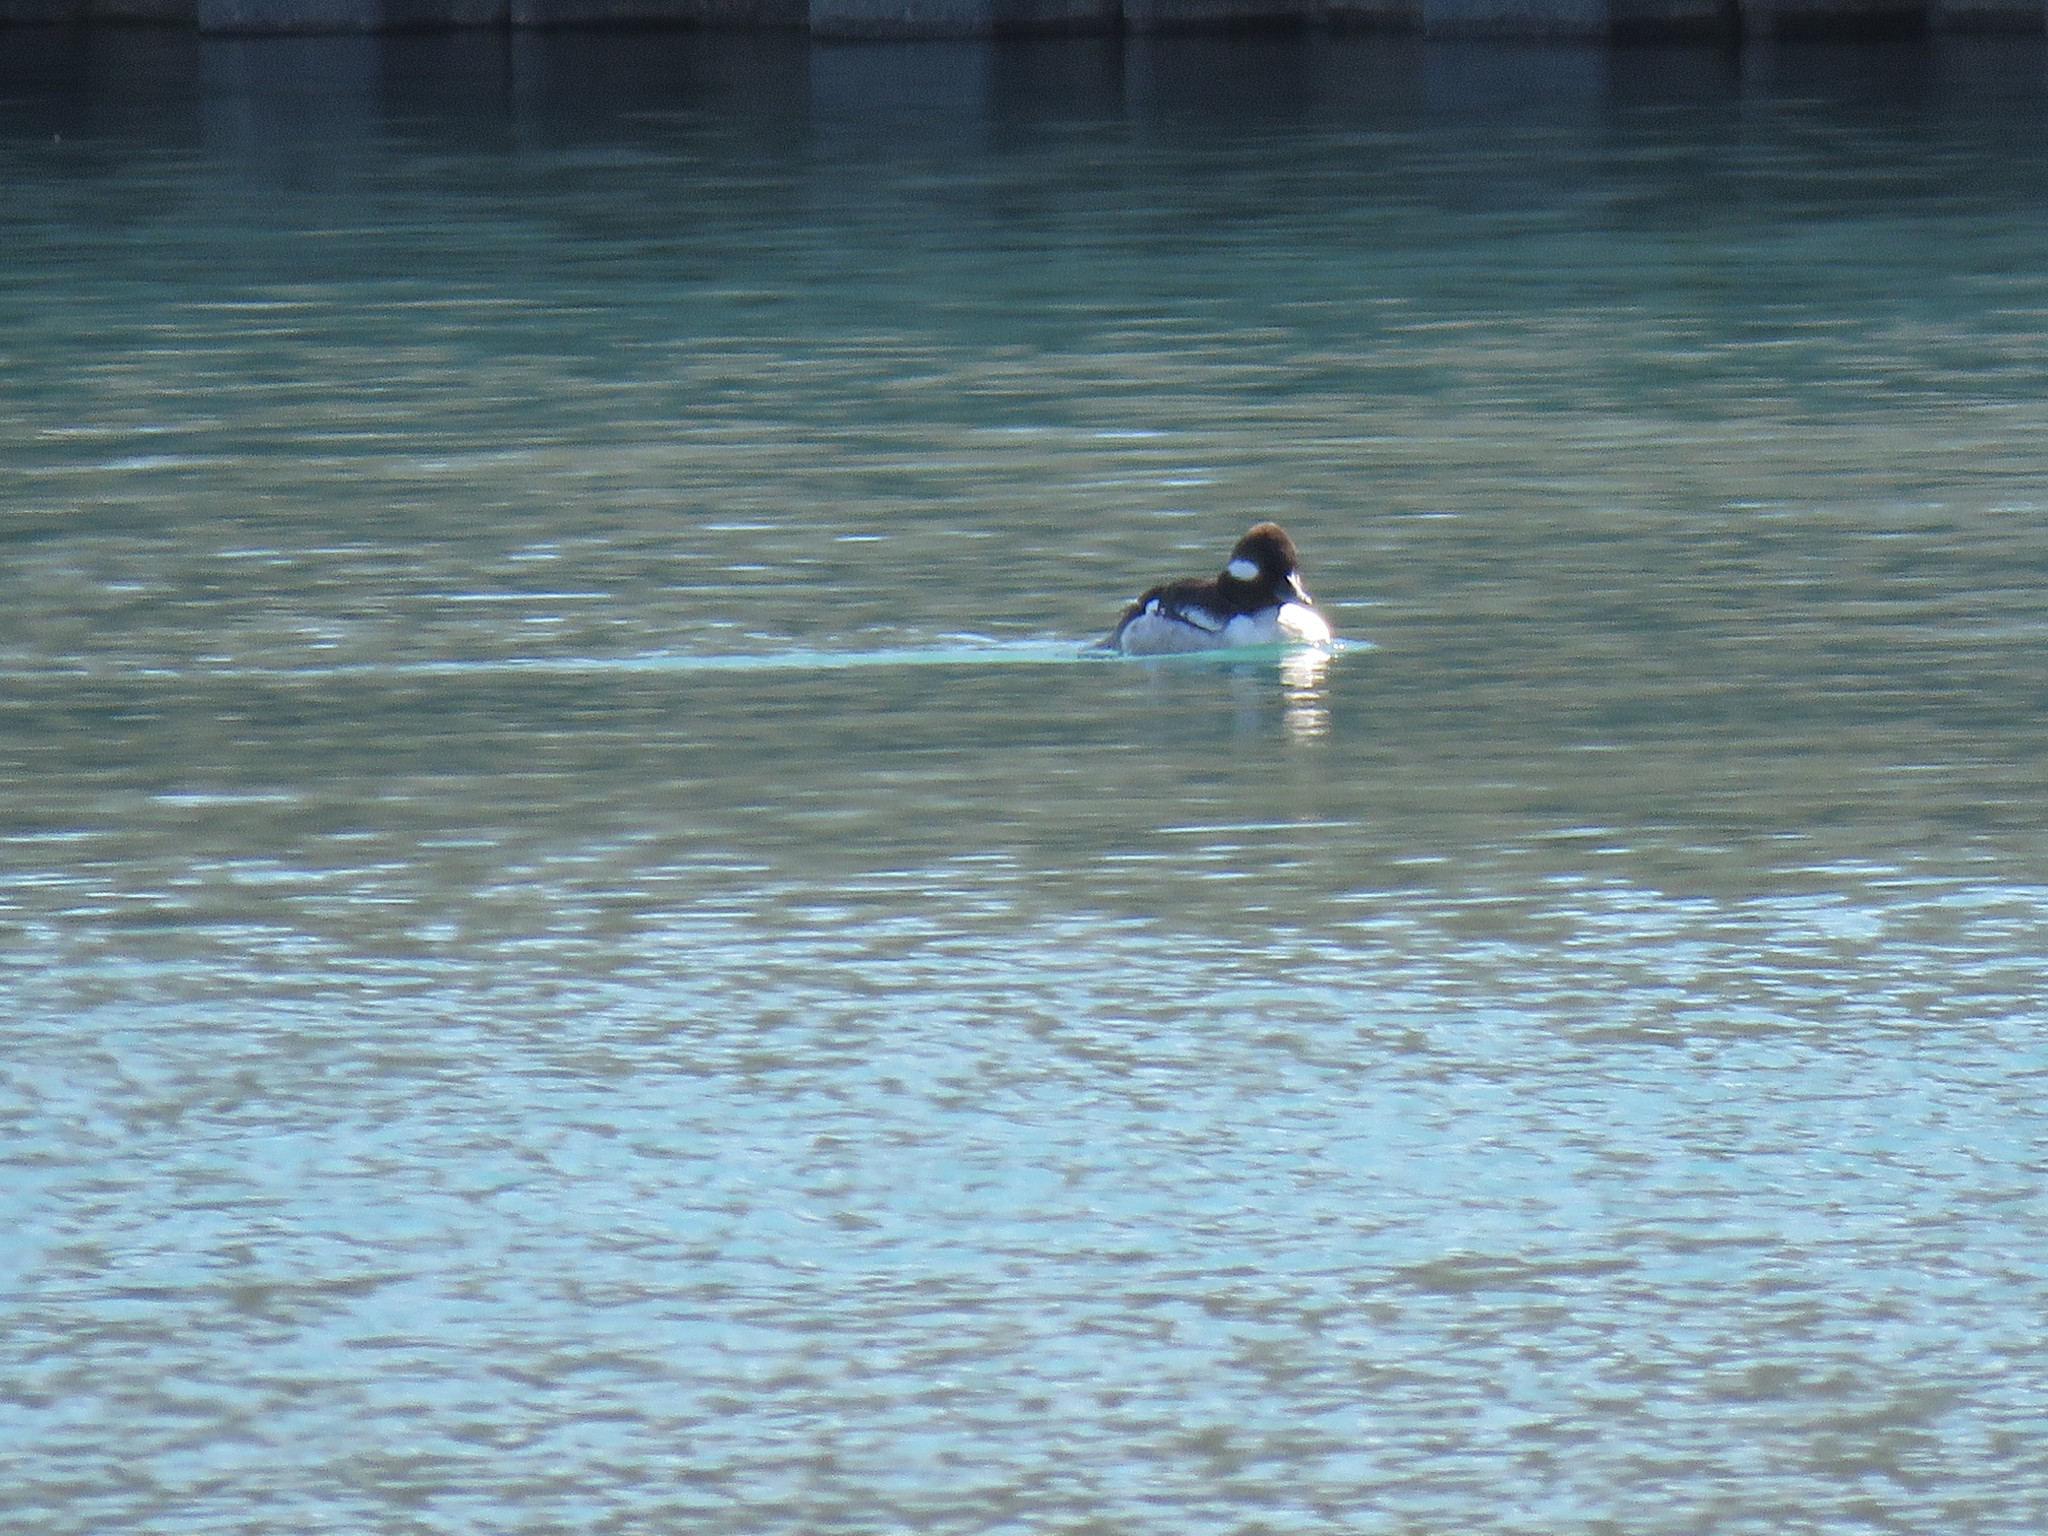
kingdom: Animalia
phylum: Chordata
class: Aves
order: Anseriformes
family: Anatidae
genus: Bucephala
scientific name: Bucephala albeola
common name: Bufflehead
